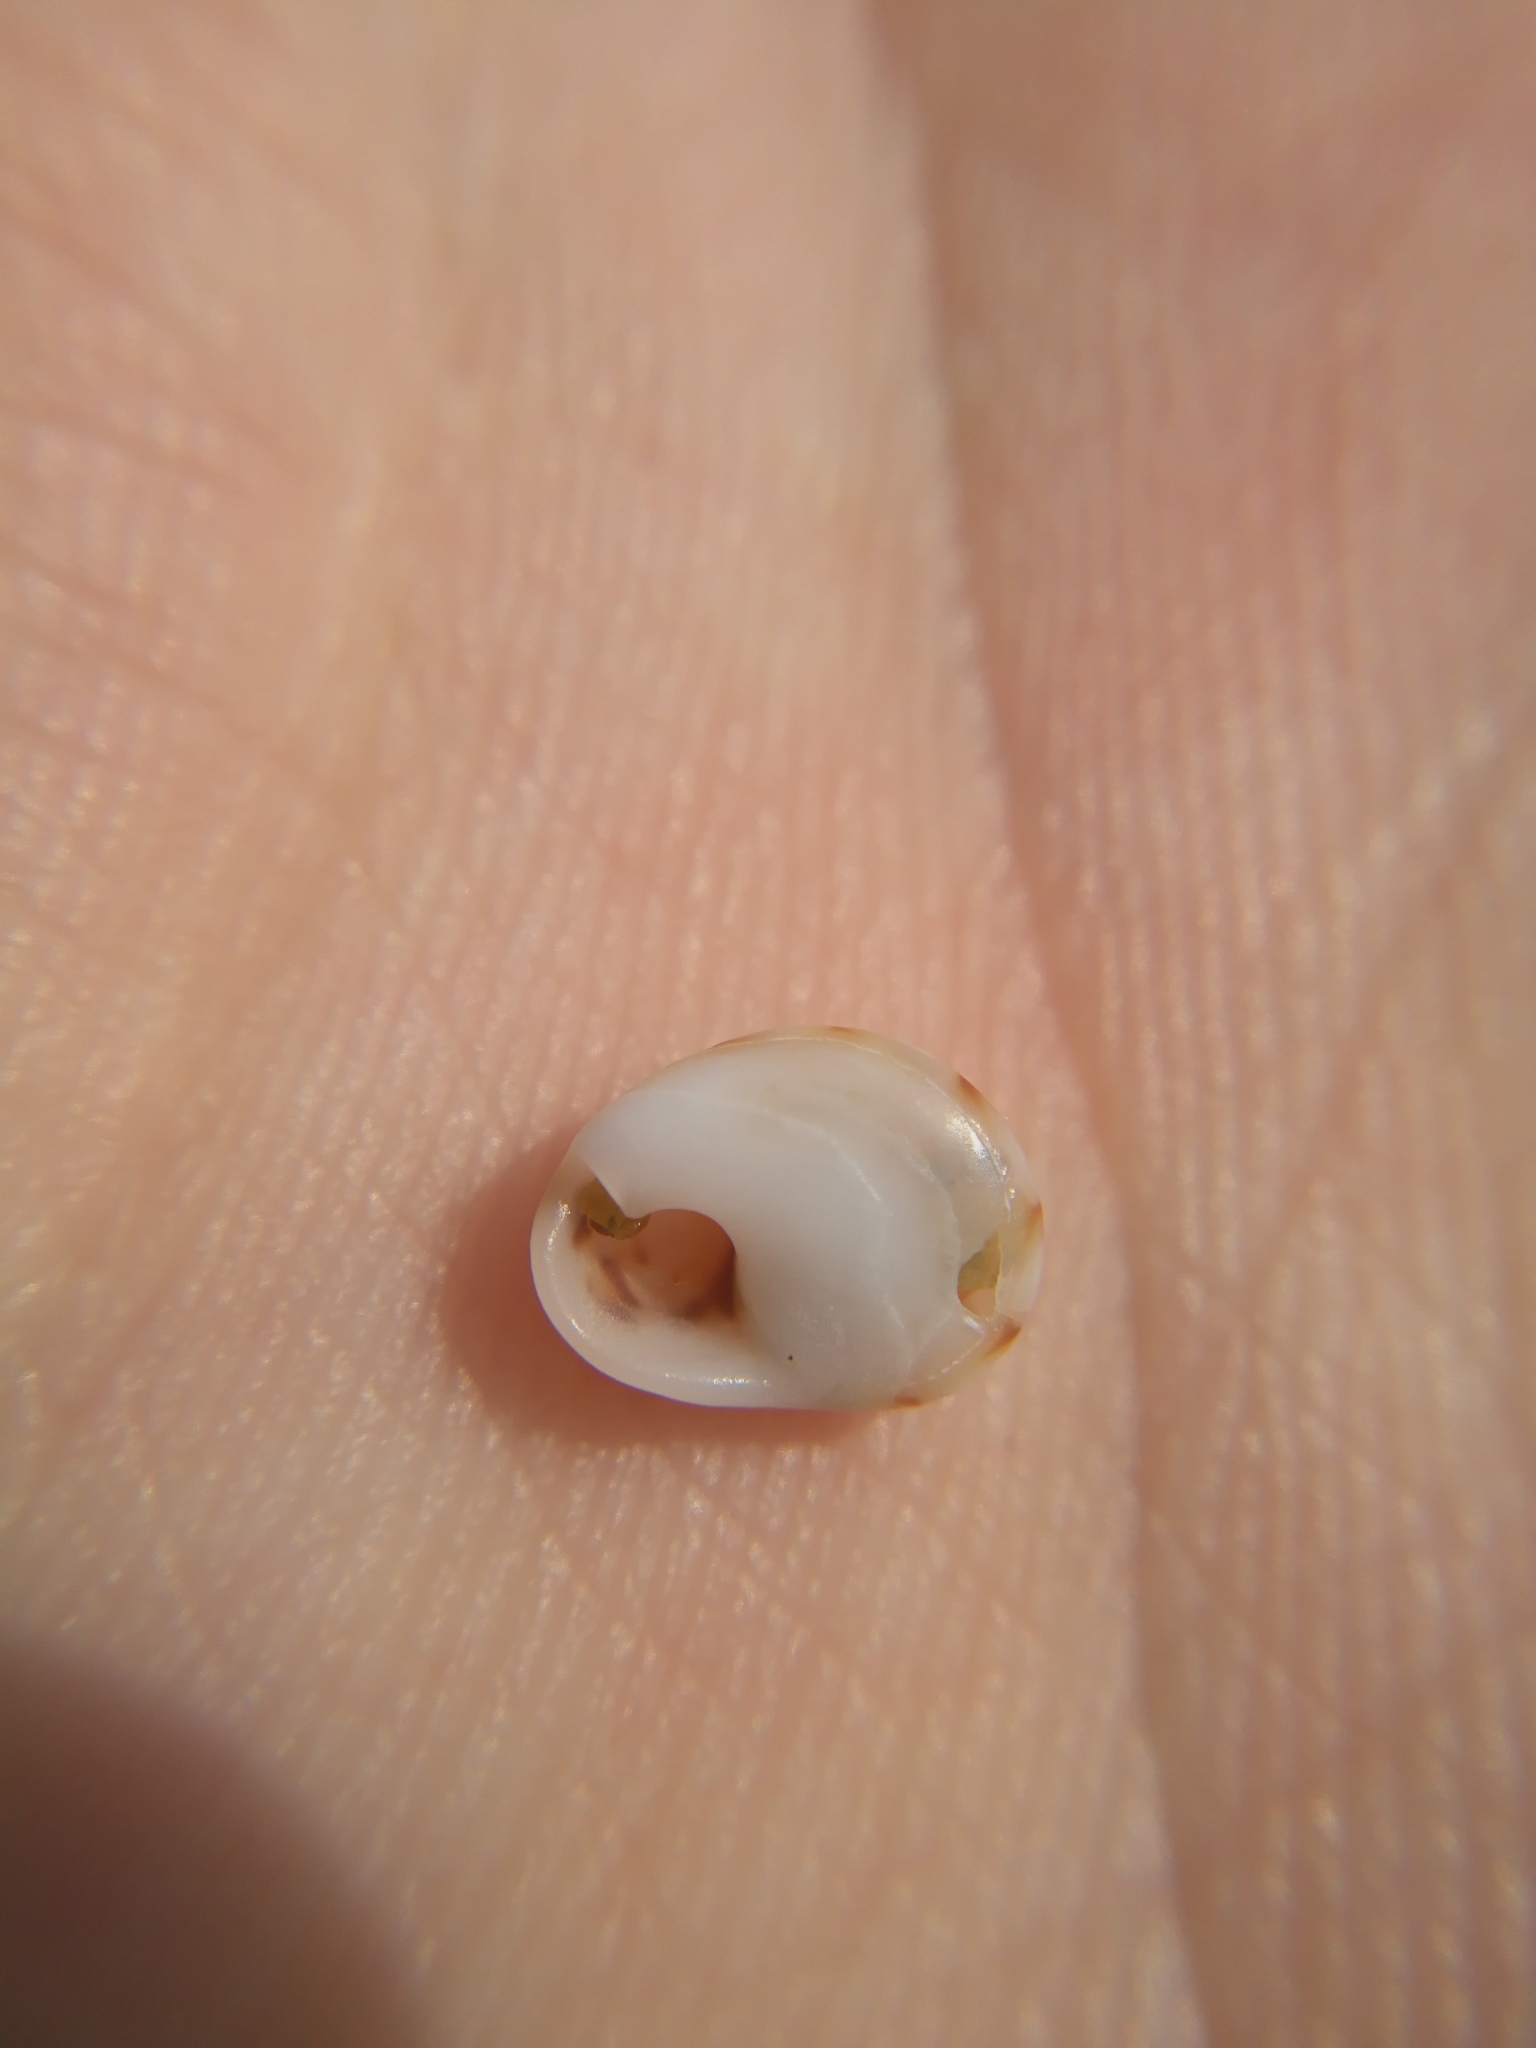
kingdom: Animalia
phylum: Mollusca
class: Gastropoda
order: Neogastropoda
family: Nassariidae
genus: Tritia
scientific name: Tritia pellucida
